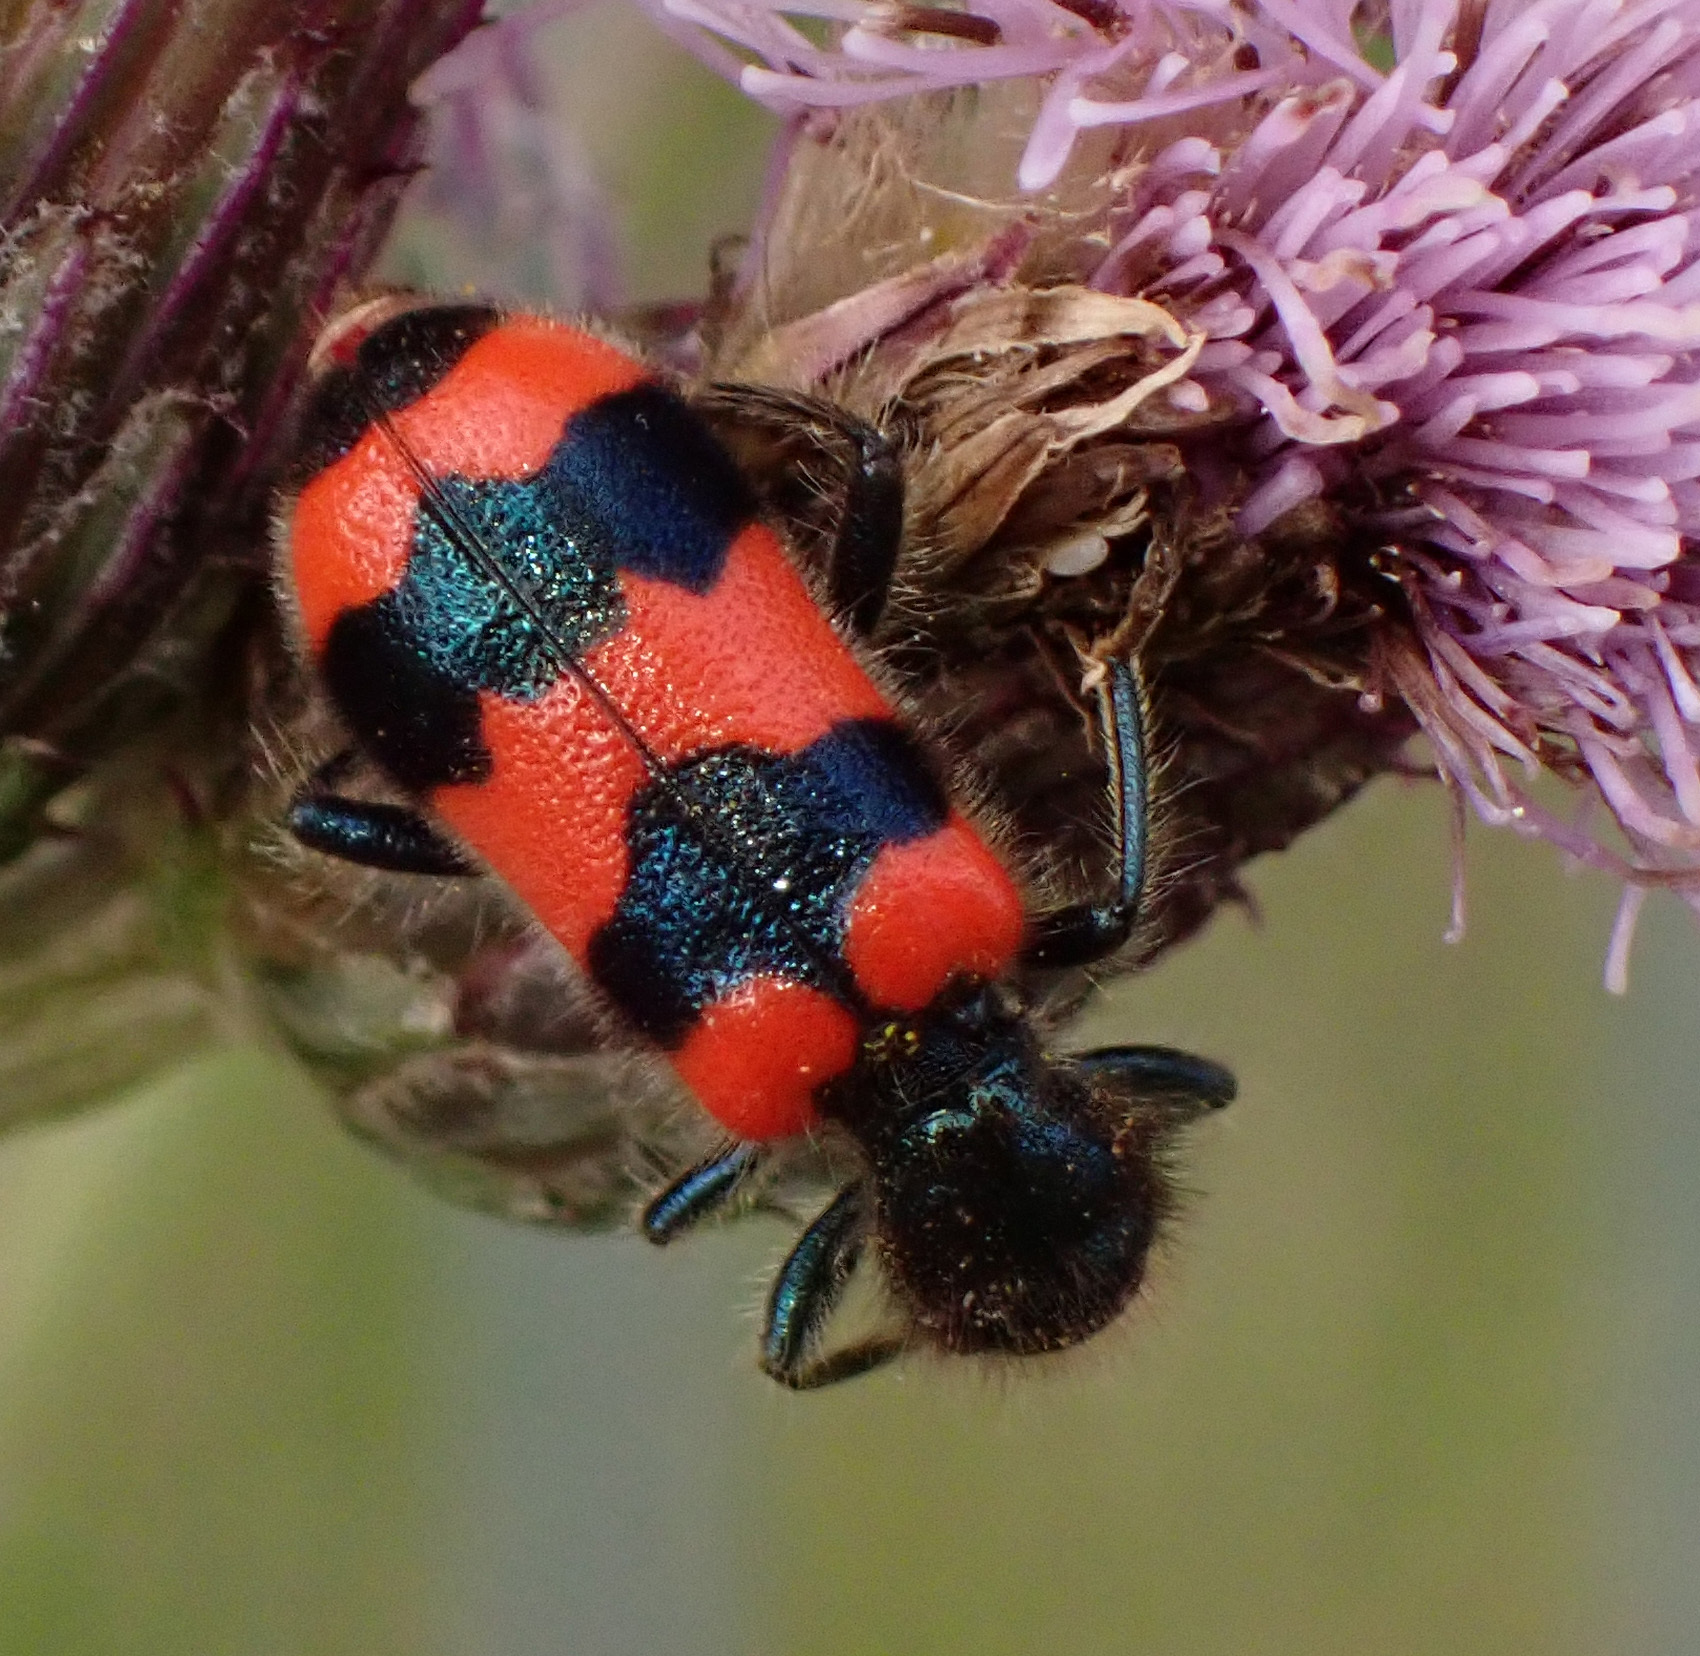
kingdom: Animalia
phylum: Arthropoda
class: Insecta
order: Coleoptera
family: Cleridae
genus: Trichodes
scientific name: Trichodes apiarius
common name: Bee-eating beetle
